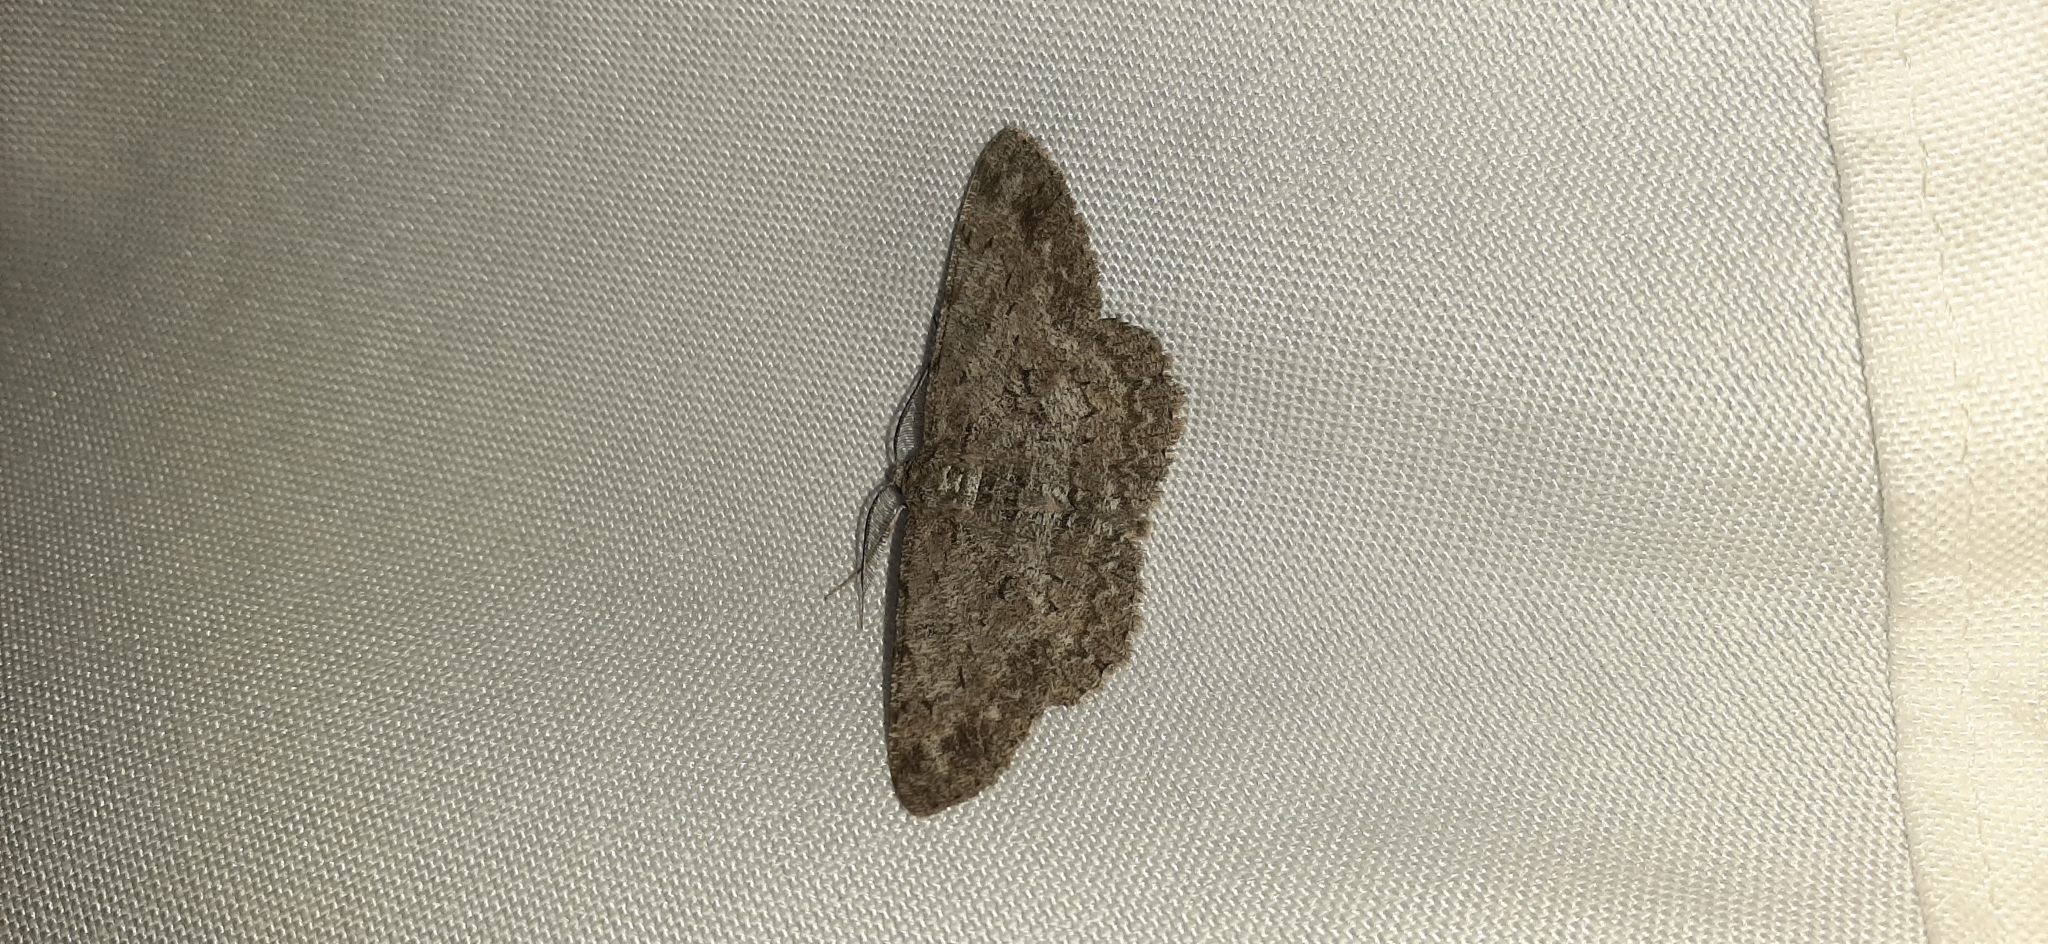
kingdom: Animalia
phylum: Arthropoda
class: Insecta
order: Lepidoptera
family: Geometridae
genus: Hypomecis
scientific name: Hypomecis punctinalis
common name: Pale oak beauty
